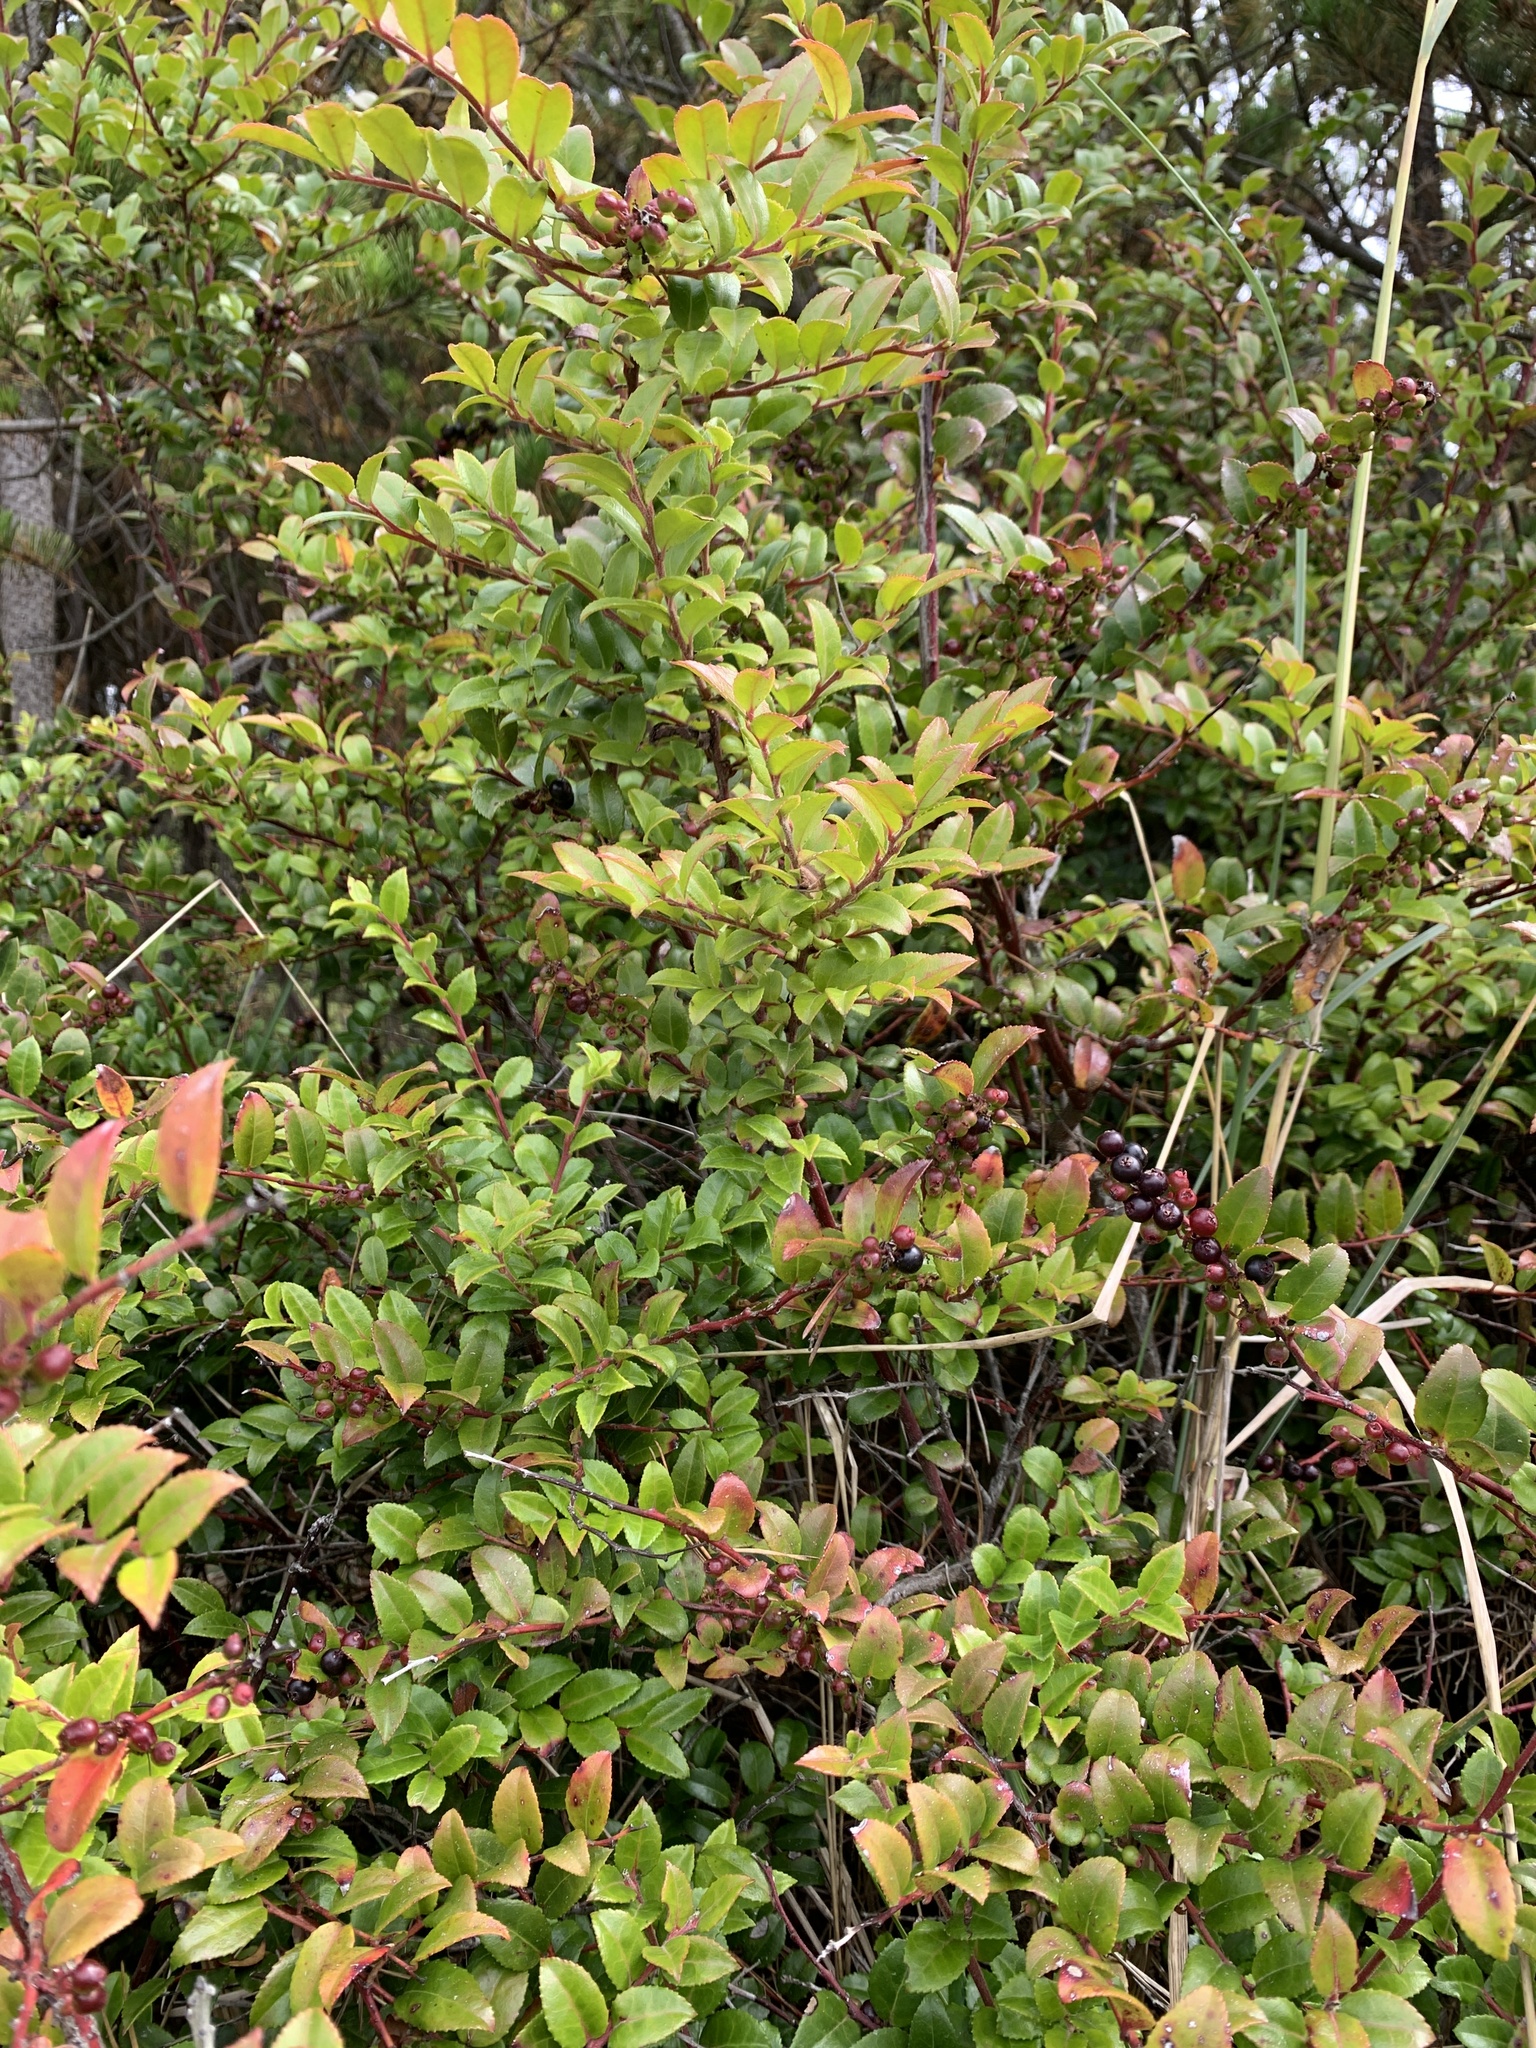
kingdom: Plantae
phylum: Tracheophyta
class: Magnoliopsida
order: Ericales
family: Ericaceae
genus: Vaccinium
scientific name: Vaccinium ovatum
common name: California-huckleberry
